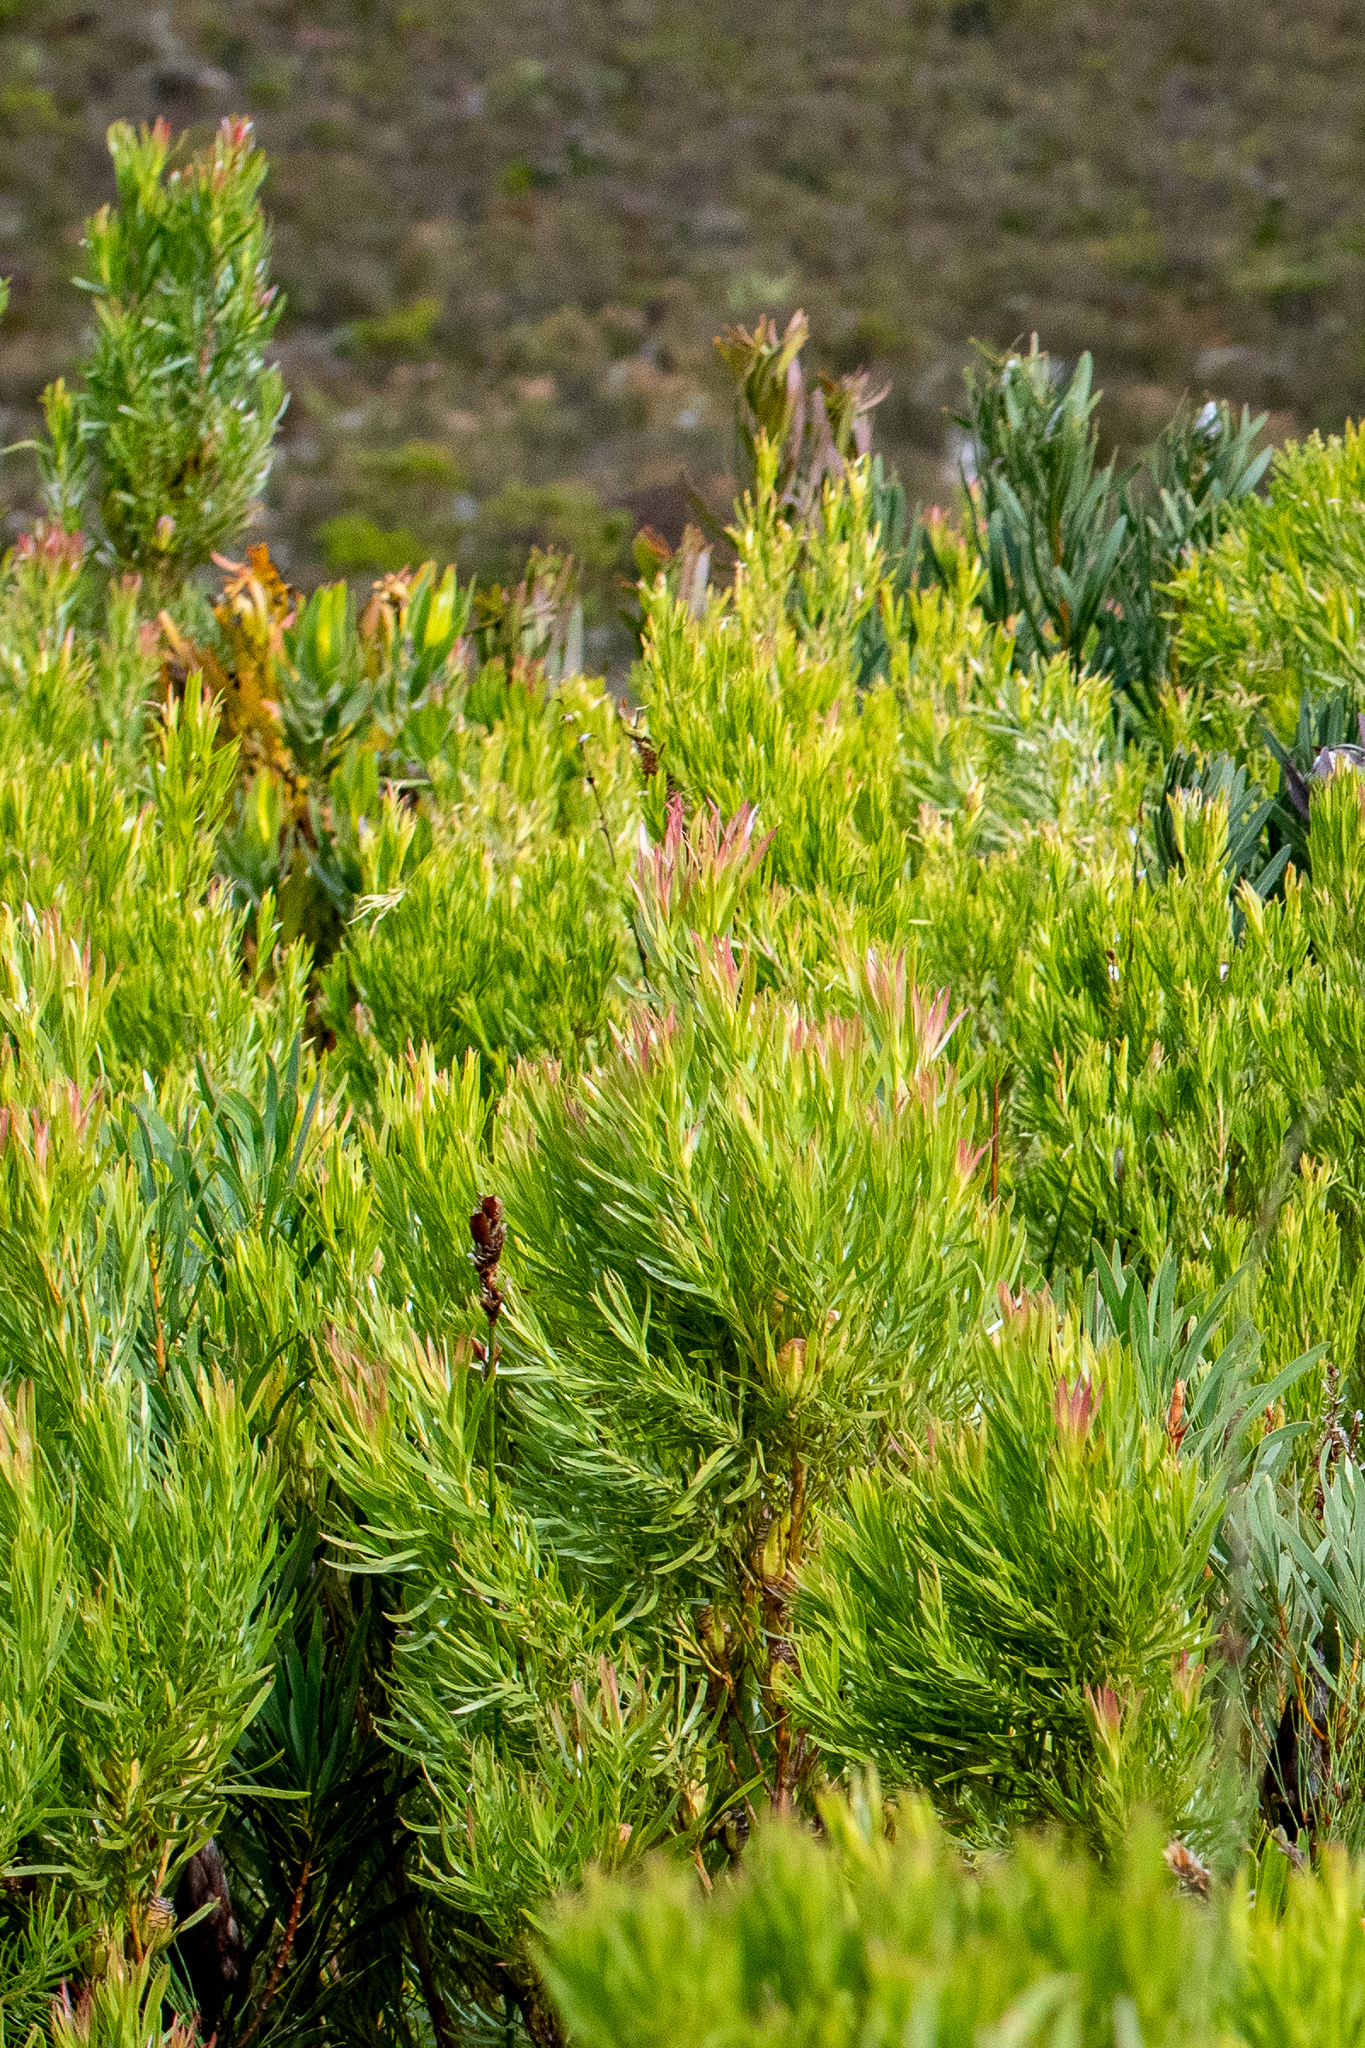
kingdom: Plantae
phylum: Tracheophyta
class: Magnoliopsida
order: Proteales
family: Proteaceae
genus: Leucadendron
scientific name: Leucadendron xanthoconus
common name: Sickle-leaf conebush
